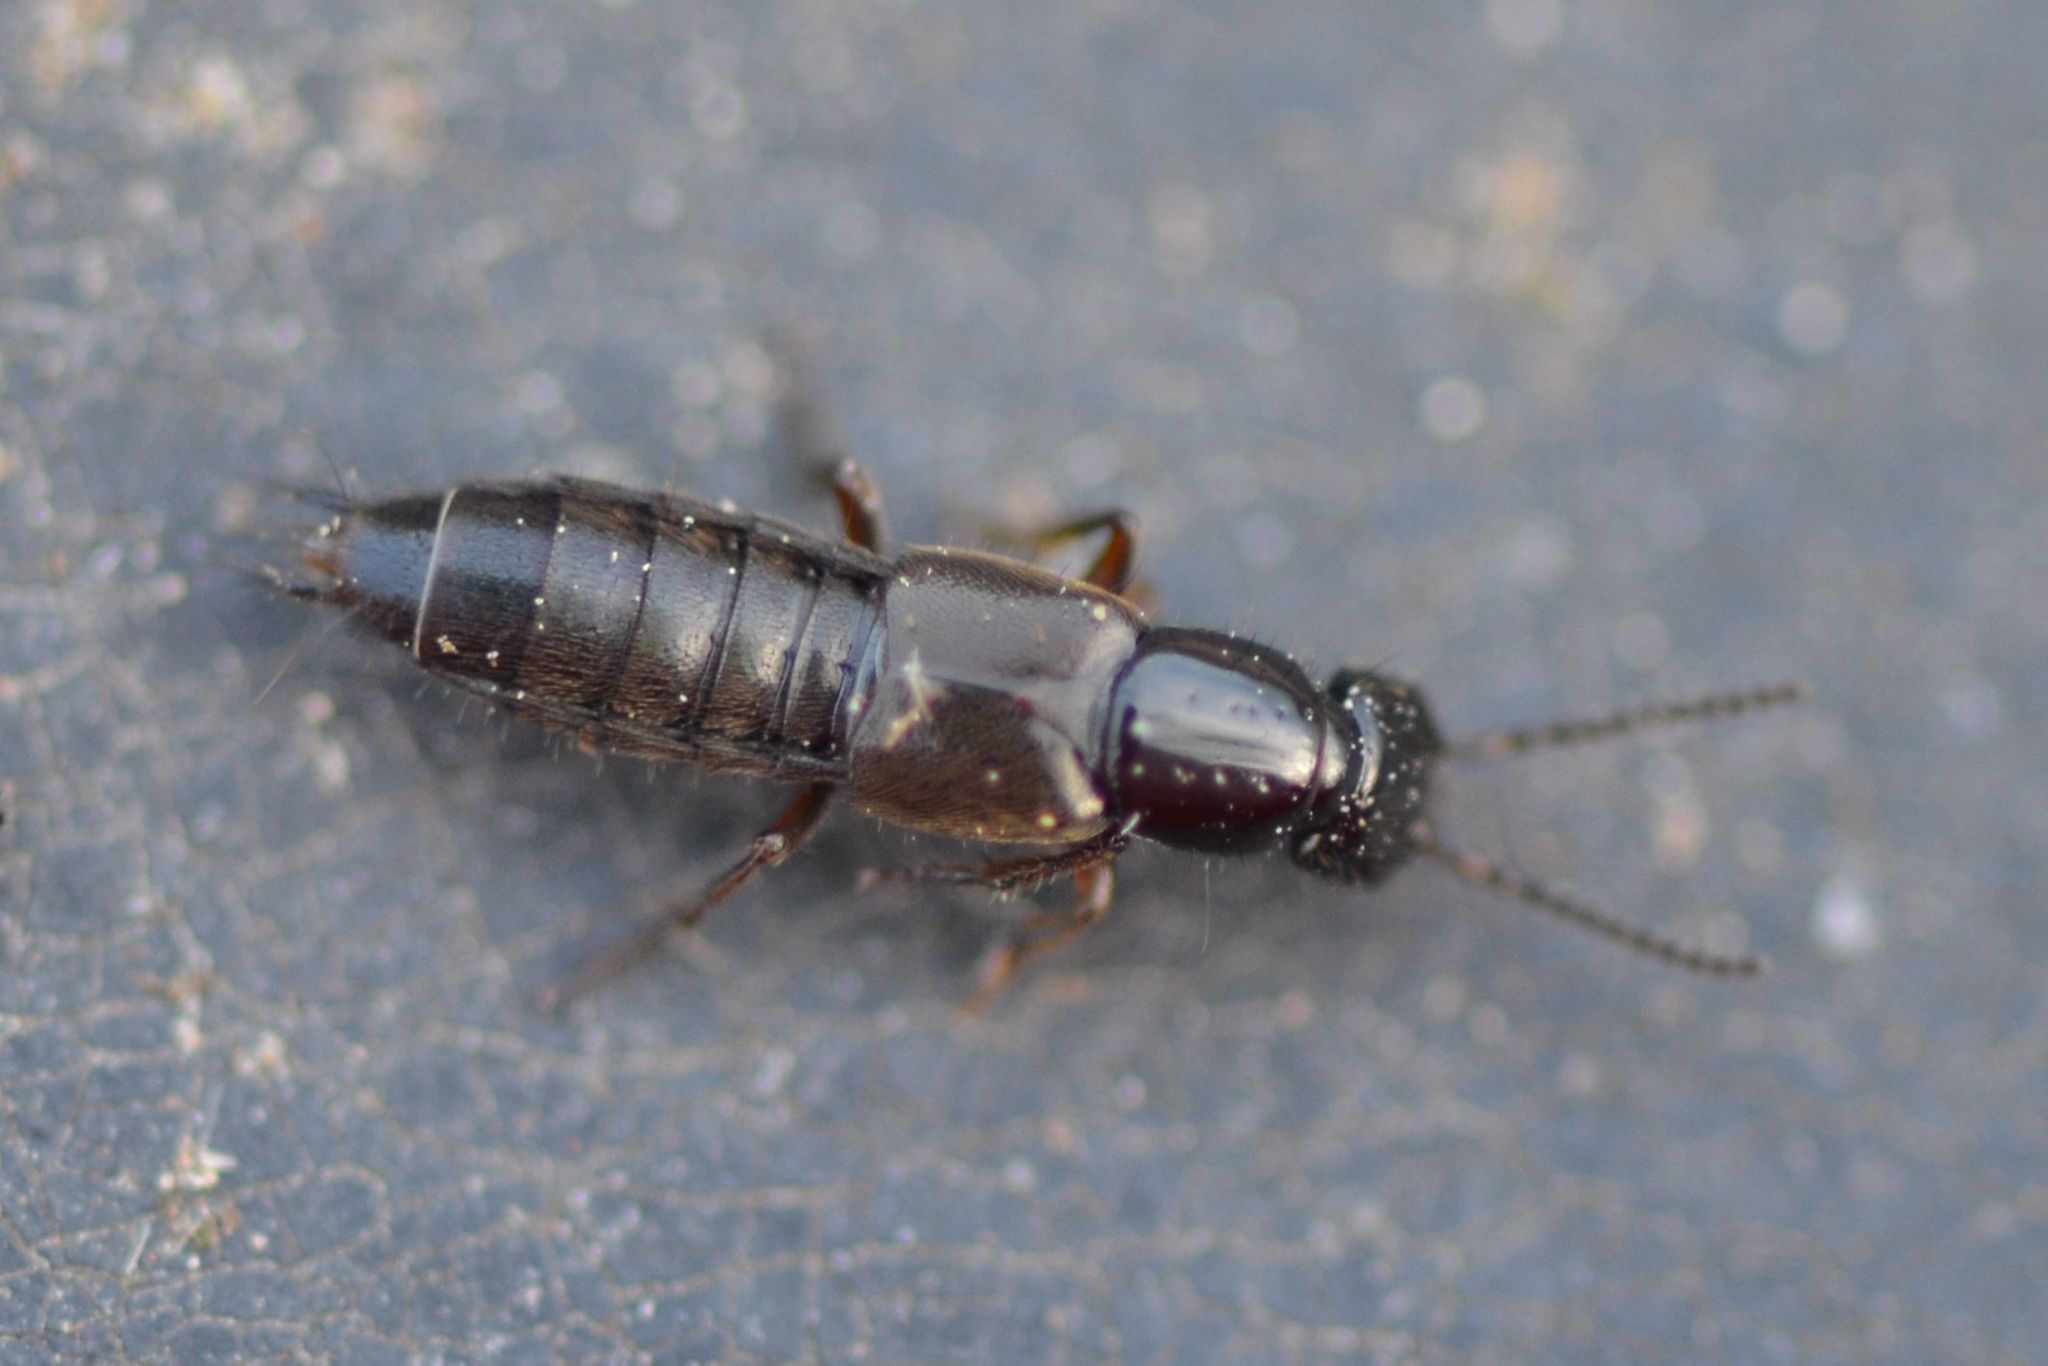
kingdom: Animalia
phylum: Arthropoda
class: Insecta
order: Coleoptera
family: Staphylinidae
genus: Philonthus
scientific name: Philonthus rectangulus
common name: Rove beetle
